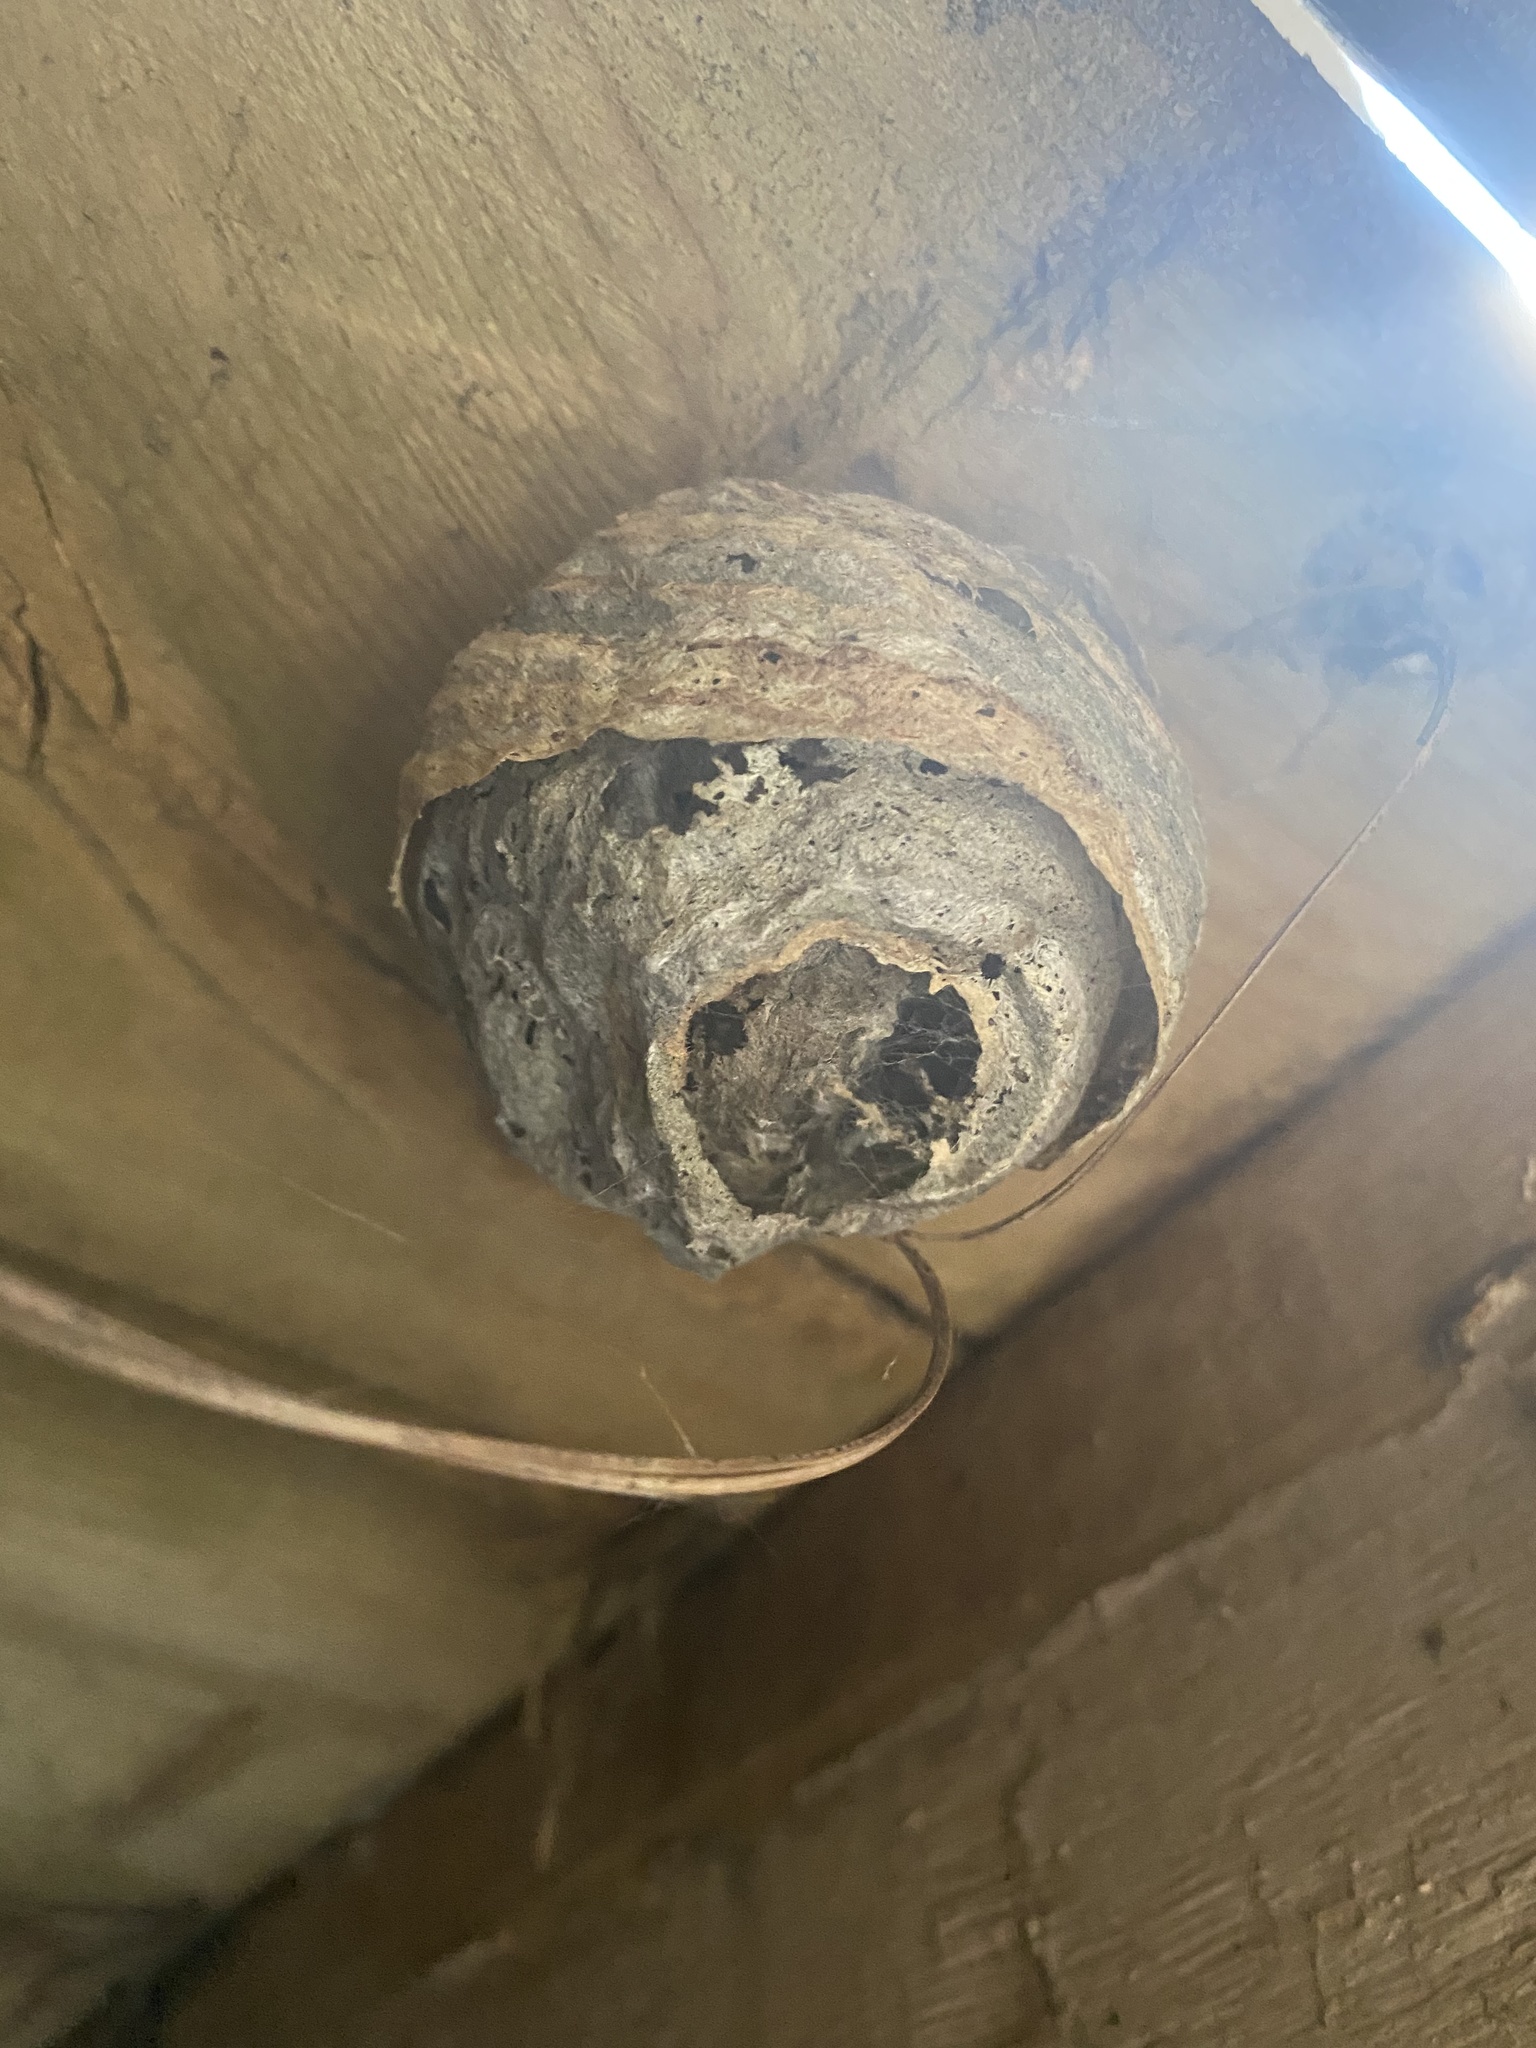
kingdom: Animalia
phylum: Arthropoda
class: Insecta
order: Hymenoptera
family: Vespidae
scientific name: Vespidae
